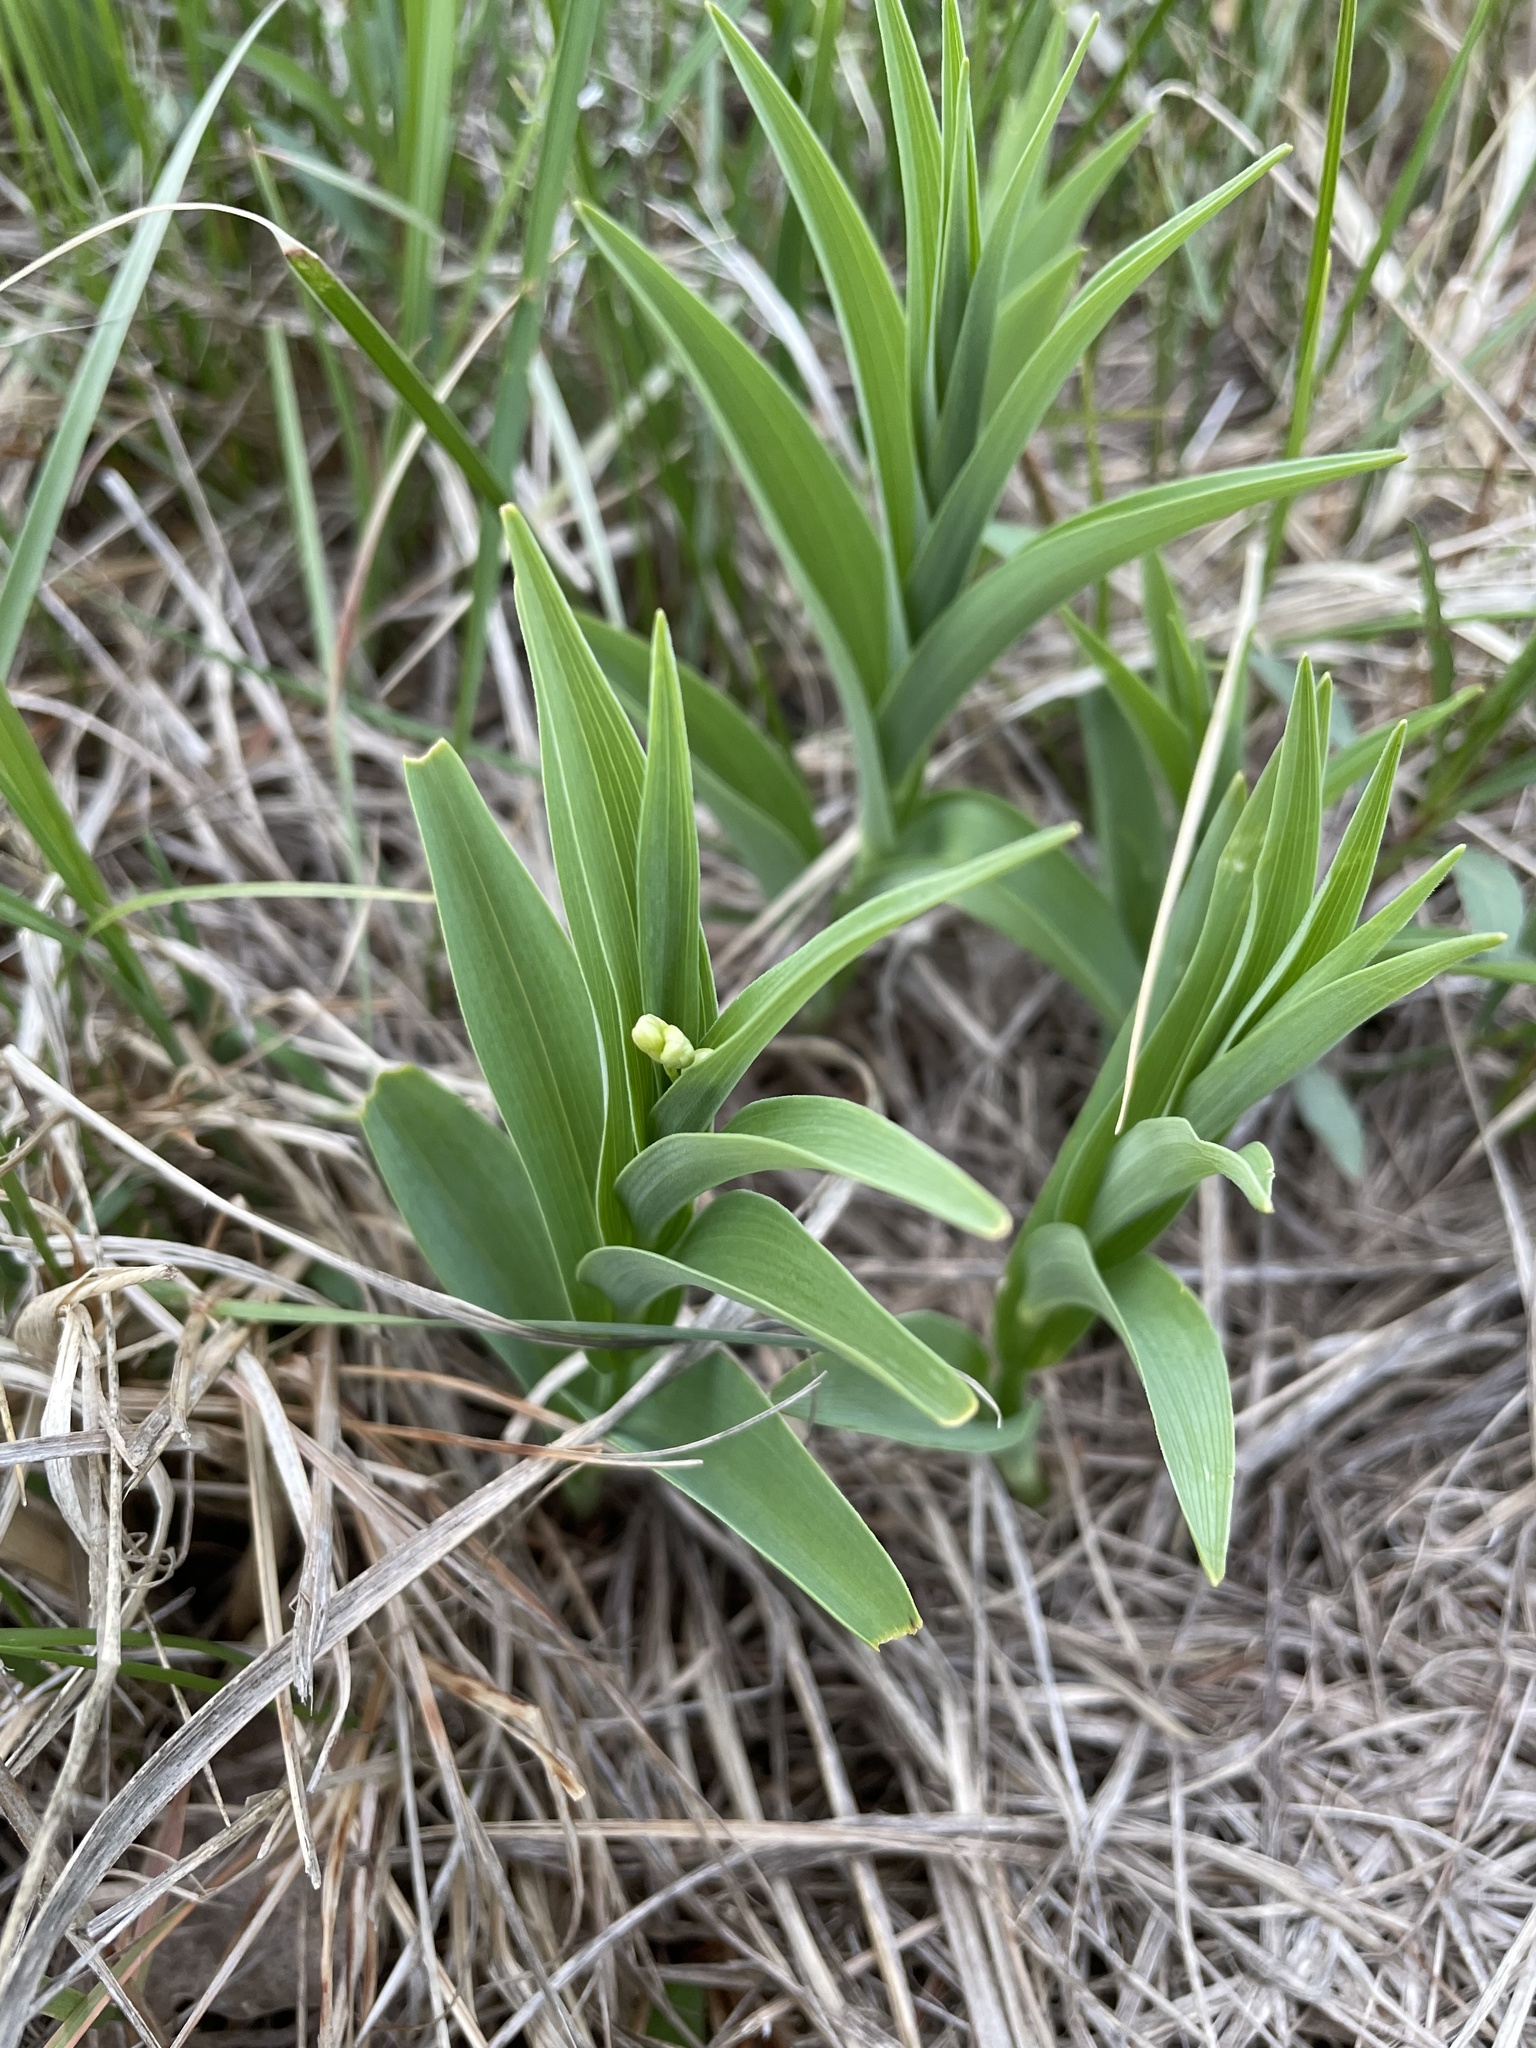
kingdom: Plantae
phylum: Tracheophyta
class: Liliopsida
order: Asparagales
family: Asparagaceae
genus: Maianthemum
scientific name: Maianthemum stellatum
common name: Little false solomon's seal
